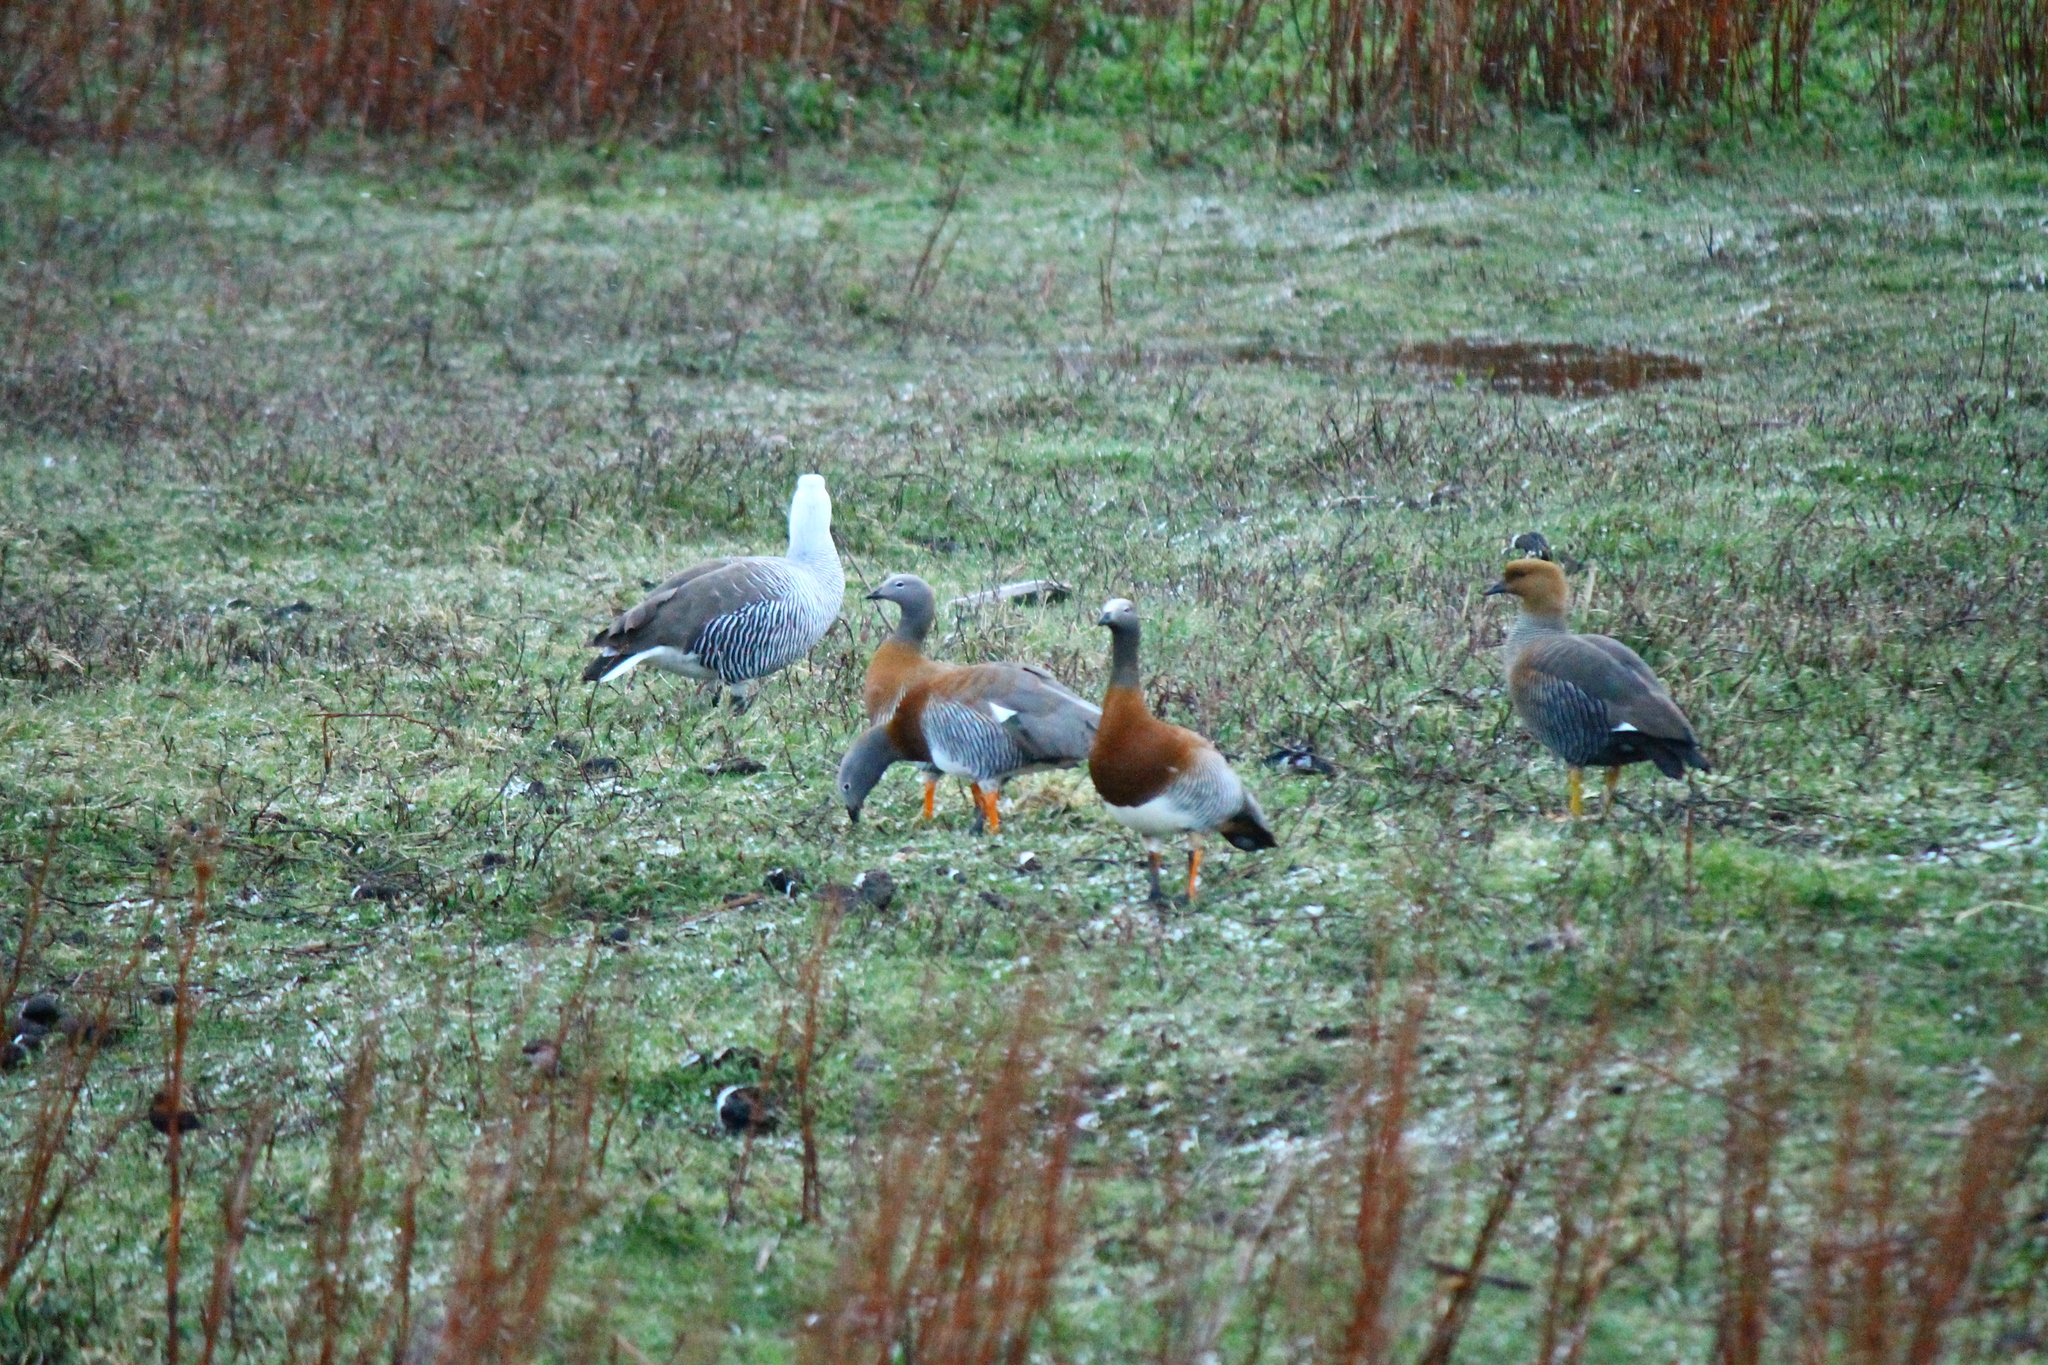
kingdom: Animalia
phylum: Chordata
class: Aves
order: Anseriformes
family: Anatidae
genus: Chloephaga
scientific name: Chloephaga poliocephala
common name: Ashy-headed goose
